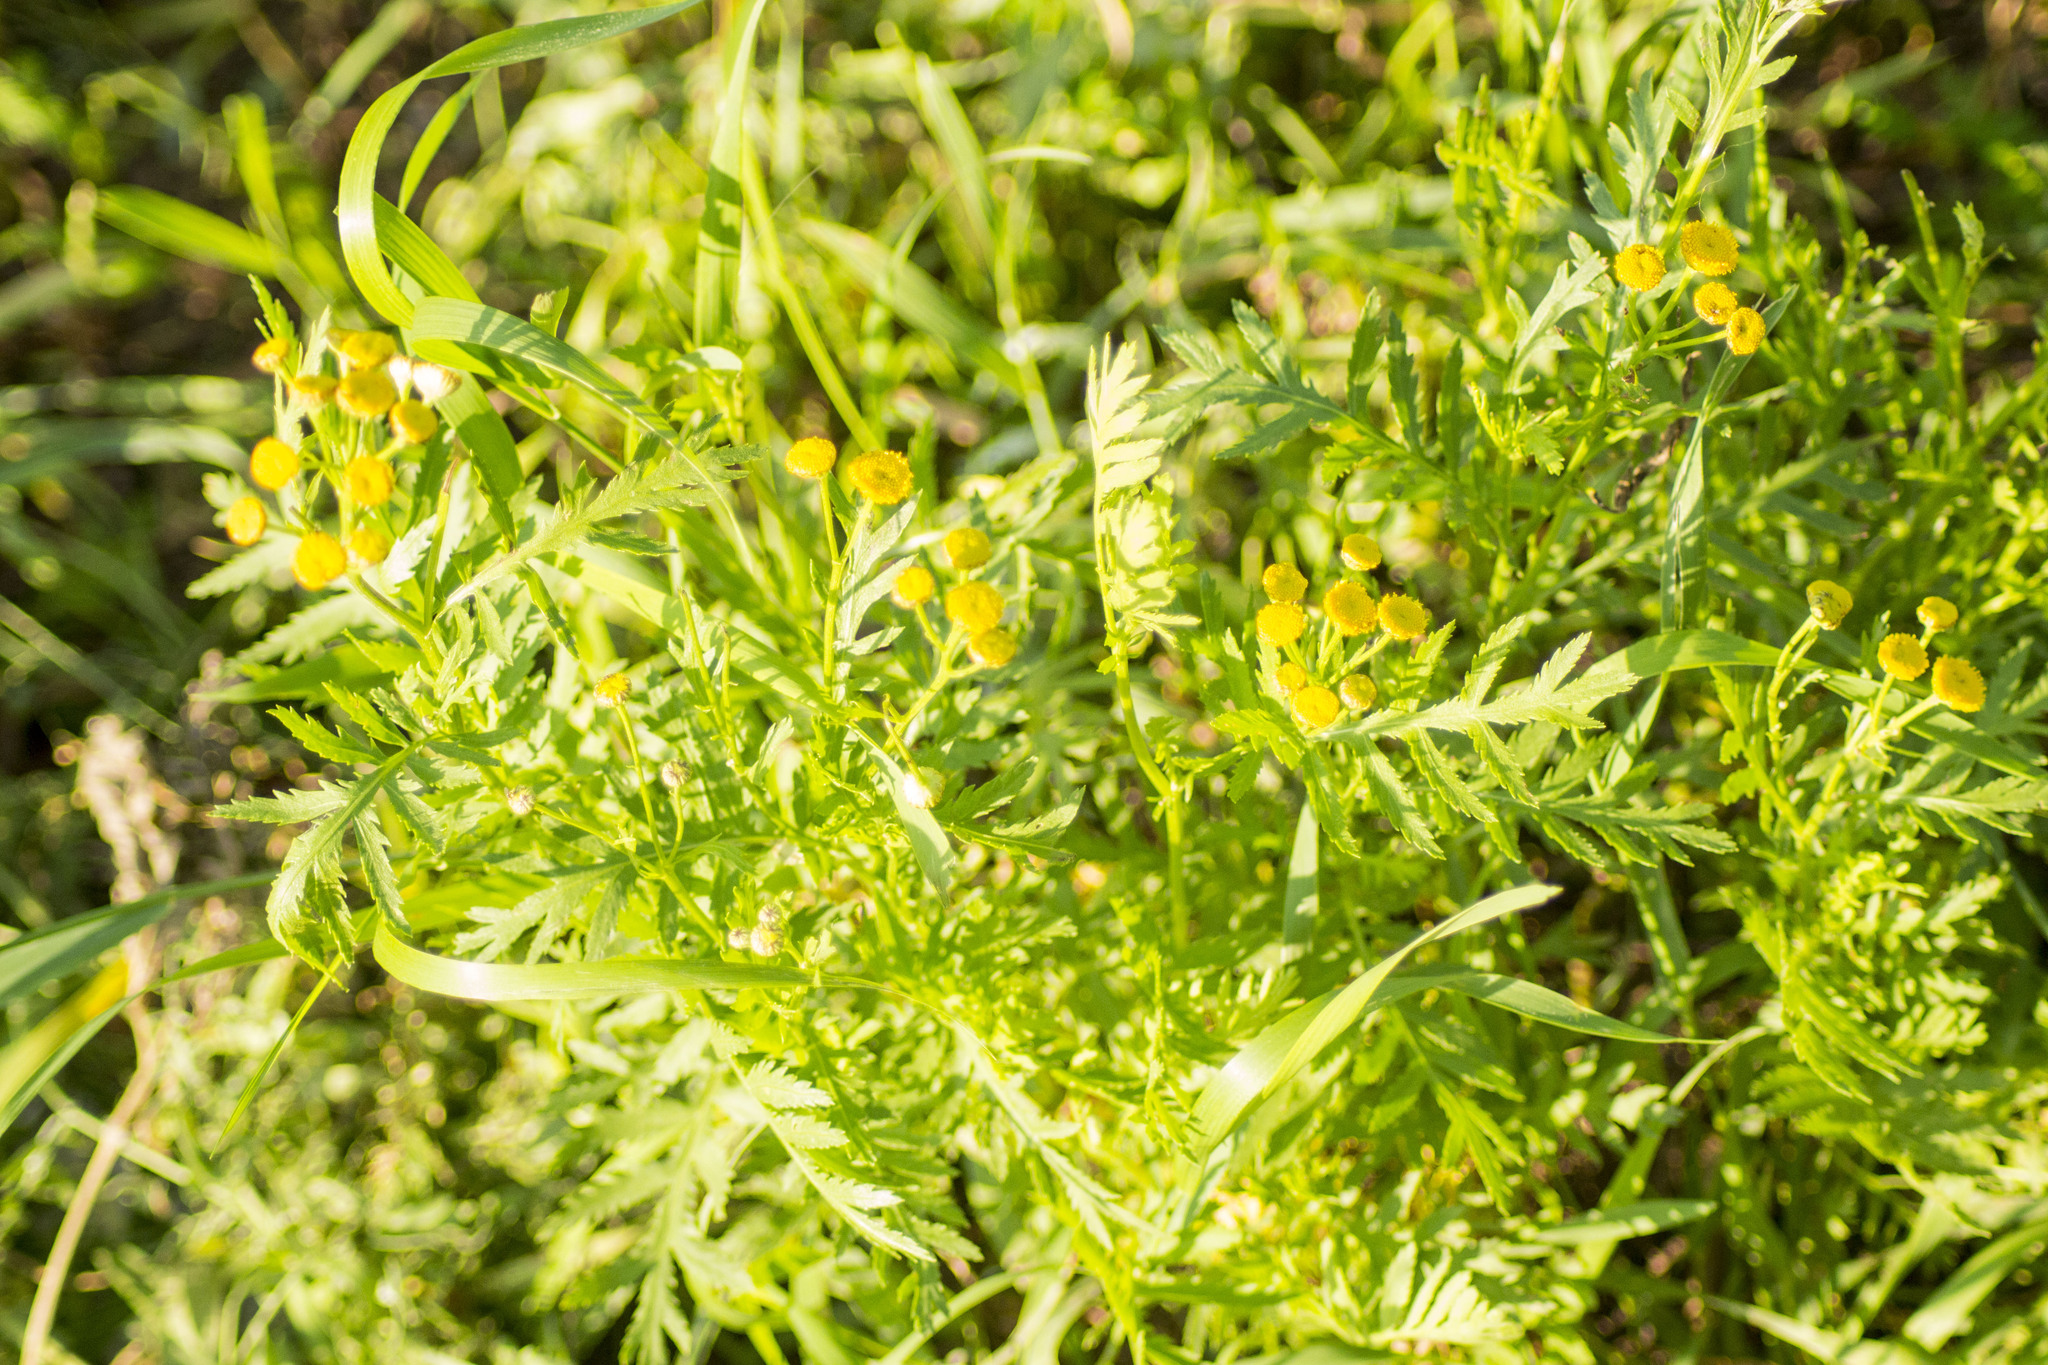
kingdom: Plantae
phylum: Tracheophyta
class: Magnoliopsida
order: Asterales
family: Asteraceae
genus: Tanacetum
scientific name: Tanacetum vulgare
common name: Common tansy
